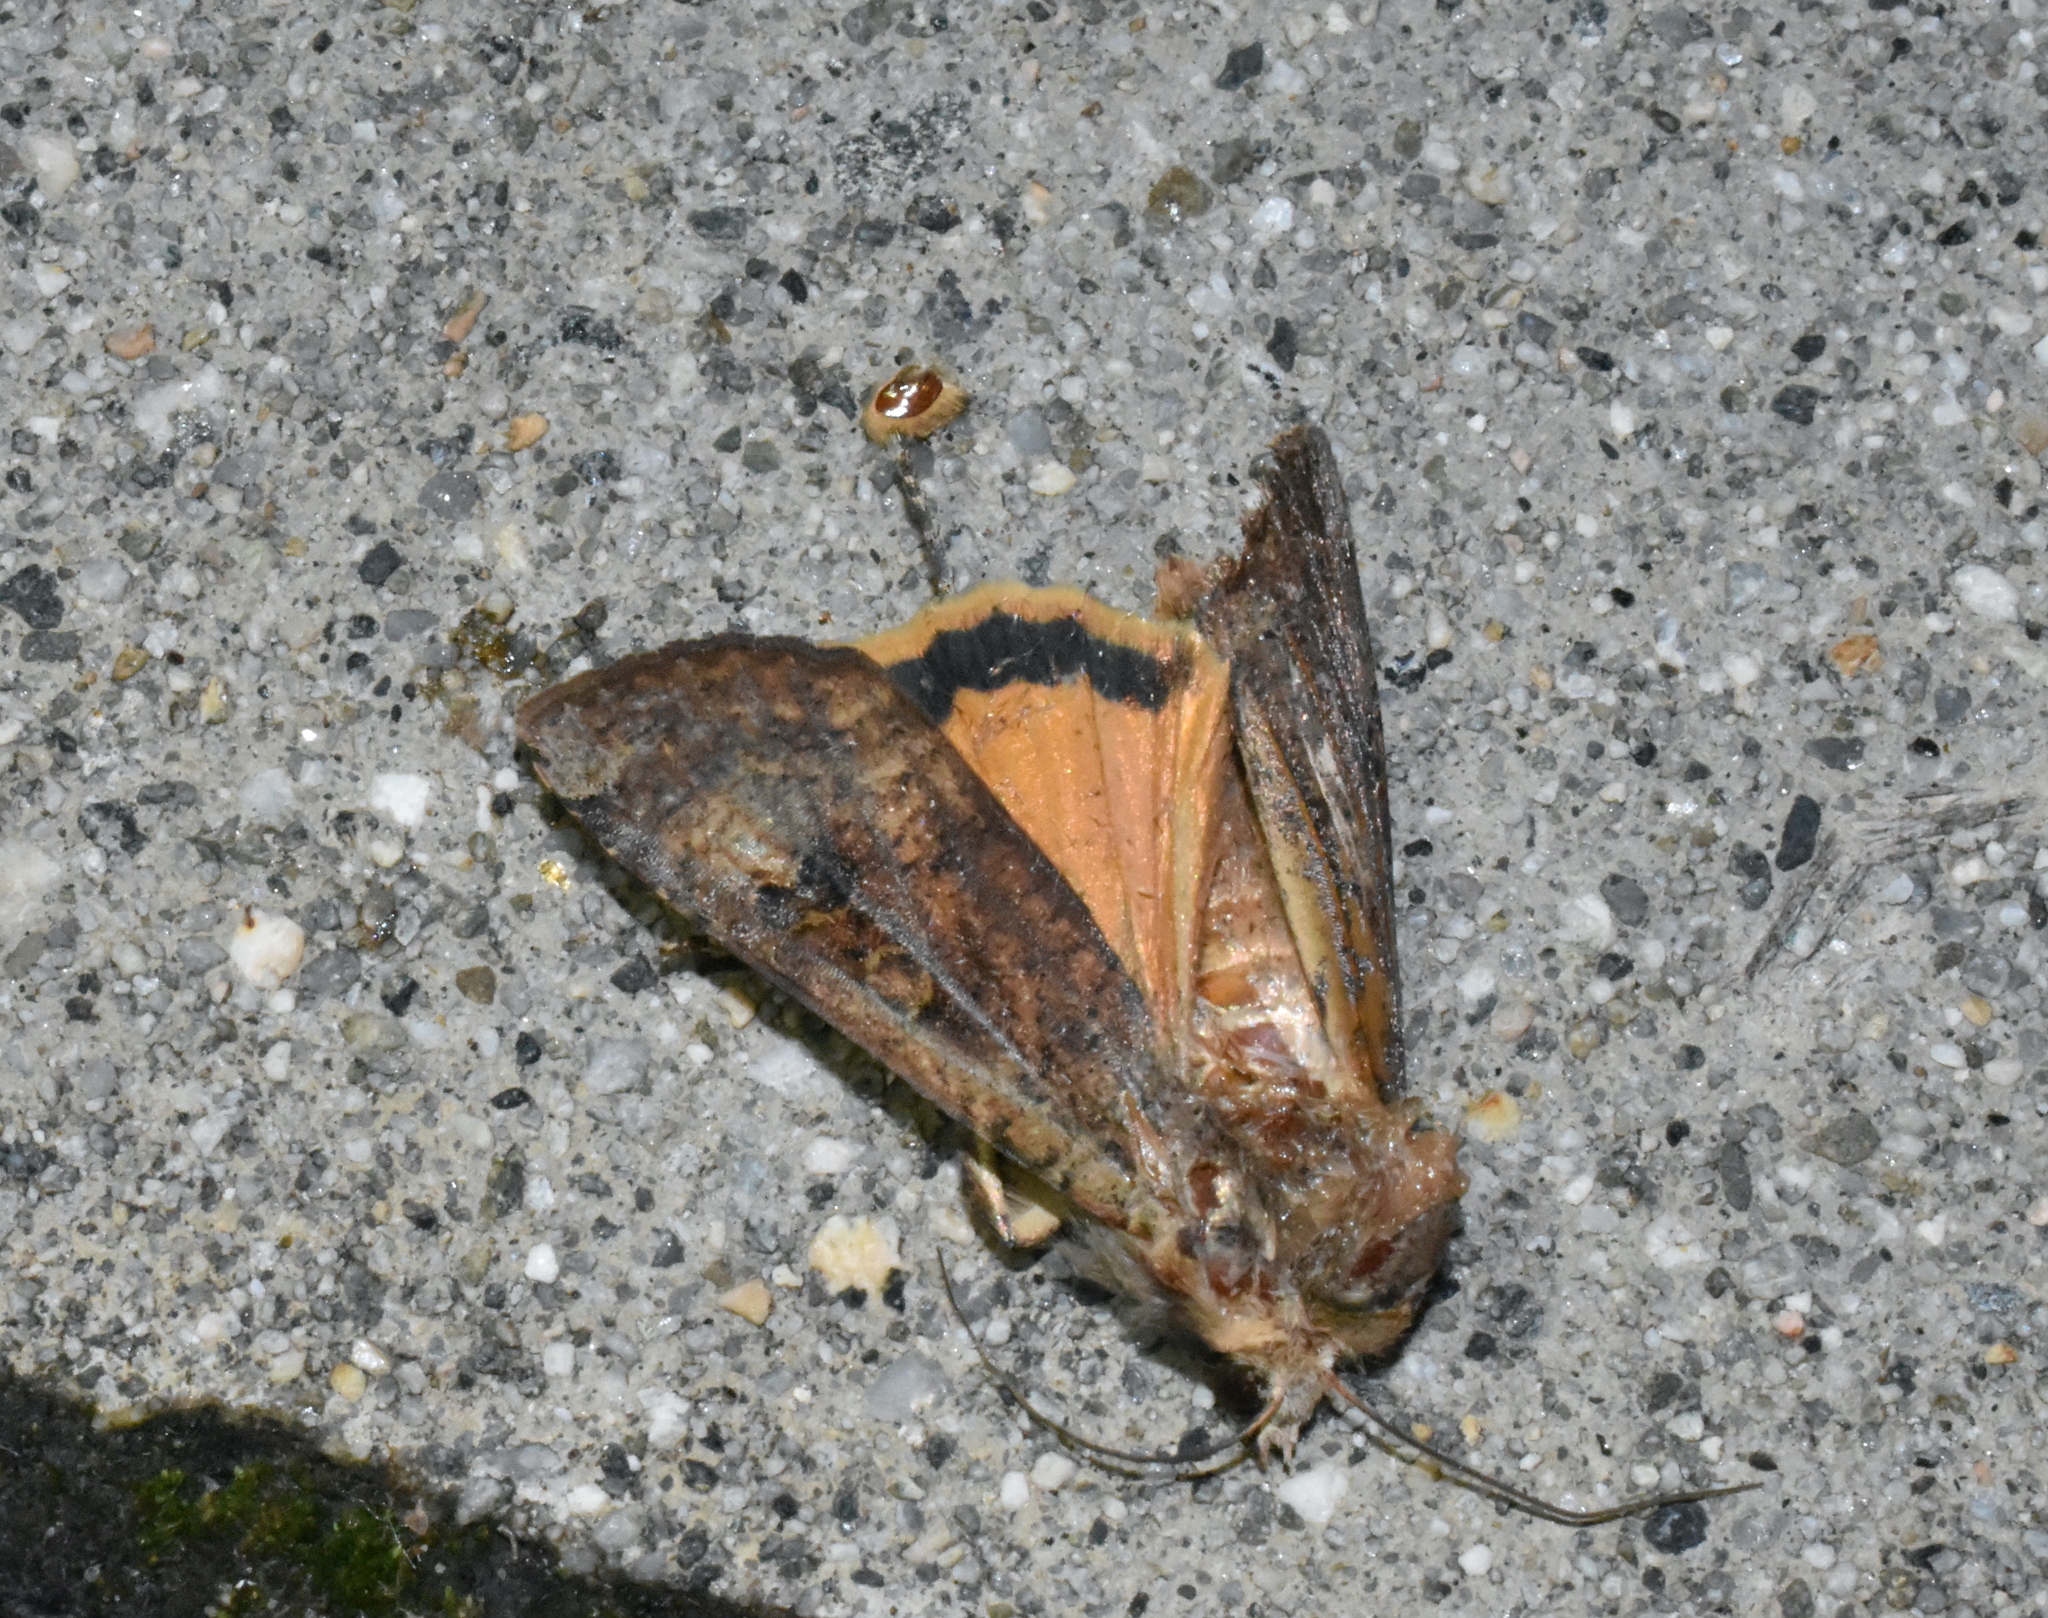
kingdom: Animalia
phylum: Arthropoda
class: Insecta
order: Lepidoptera
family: Noctuidae
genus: Noctua
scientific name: Noctua pronuba
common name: Large yellow underwing
